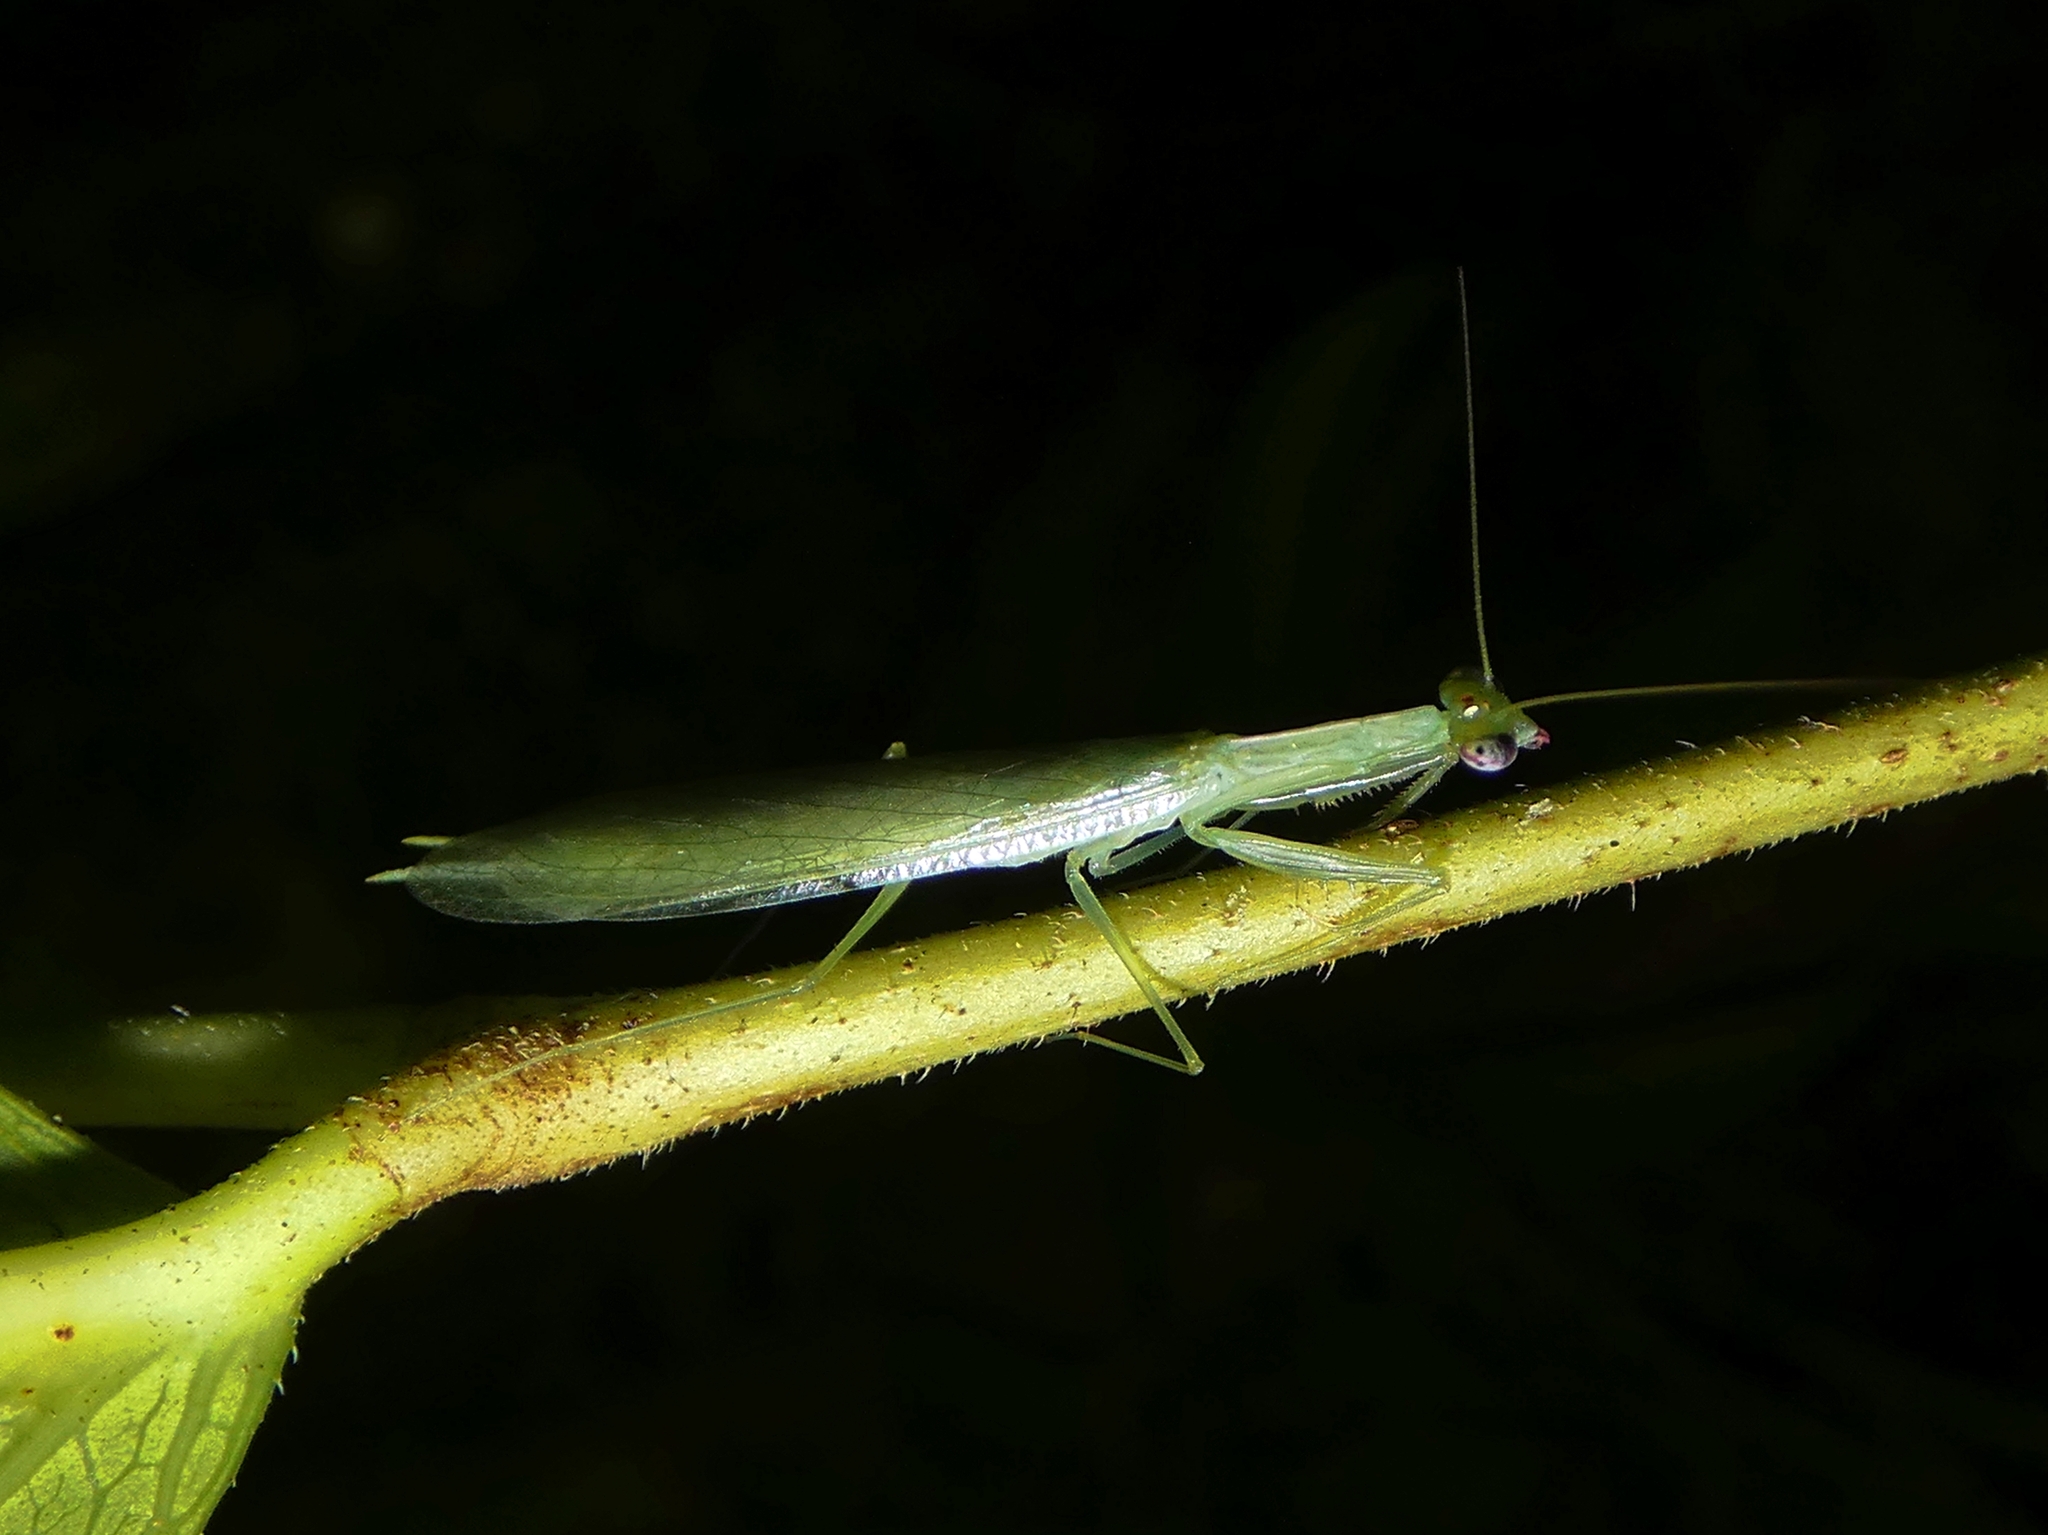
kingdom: Animalia
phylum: Arthropoda
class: Insecta
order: Mantodea
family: Nanomantidae
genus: Kongobatha
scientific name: Kongobatha diademata
